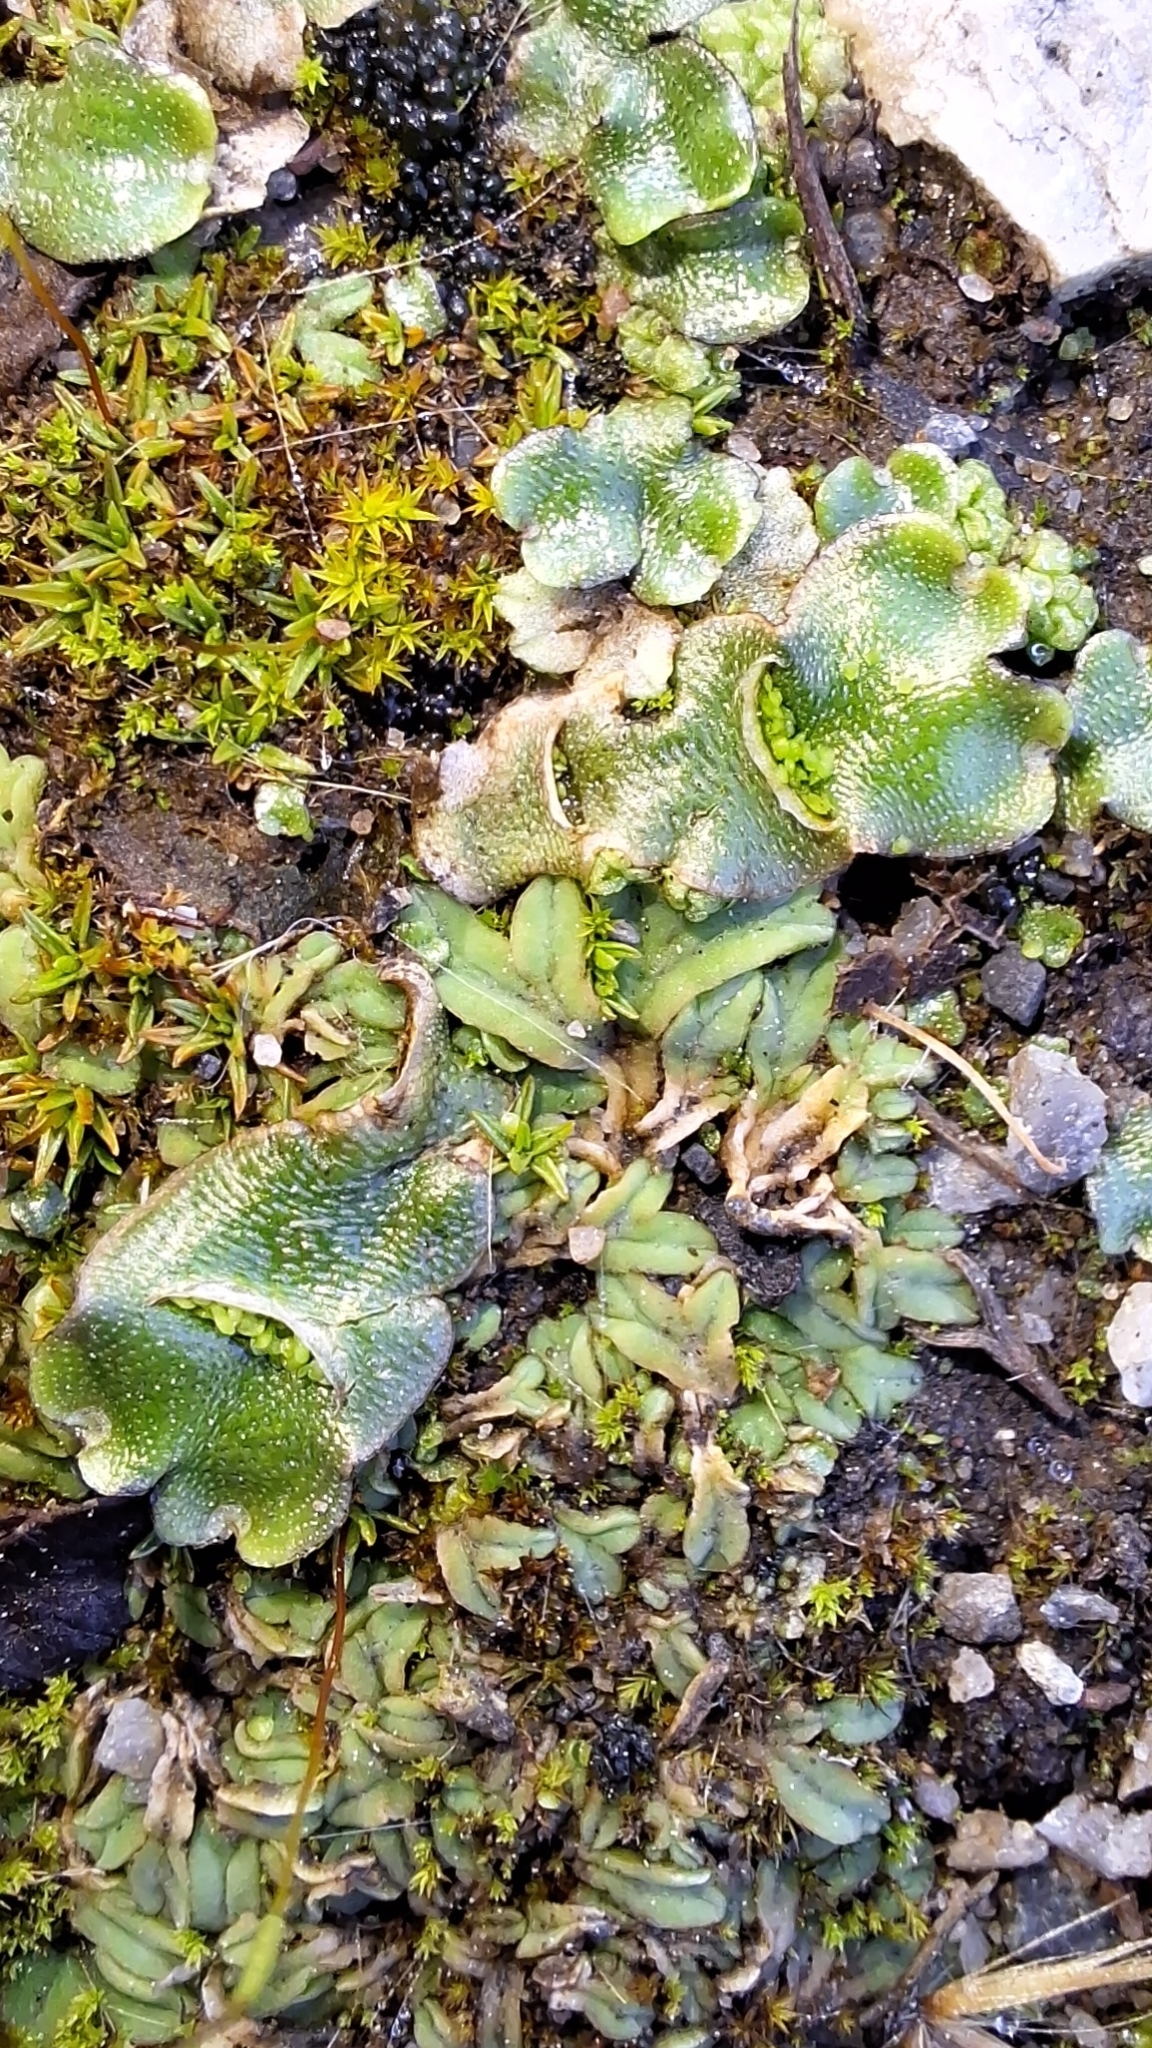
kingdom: Plantae
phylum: Marchantiophyta
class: Marchantiopsida
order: Lunulariales
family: Lunulariaceae
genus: Lunularia
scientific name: Lunularia cruciata
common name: Crescent-cup liverwort
